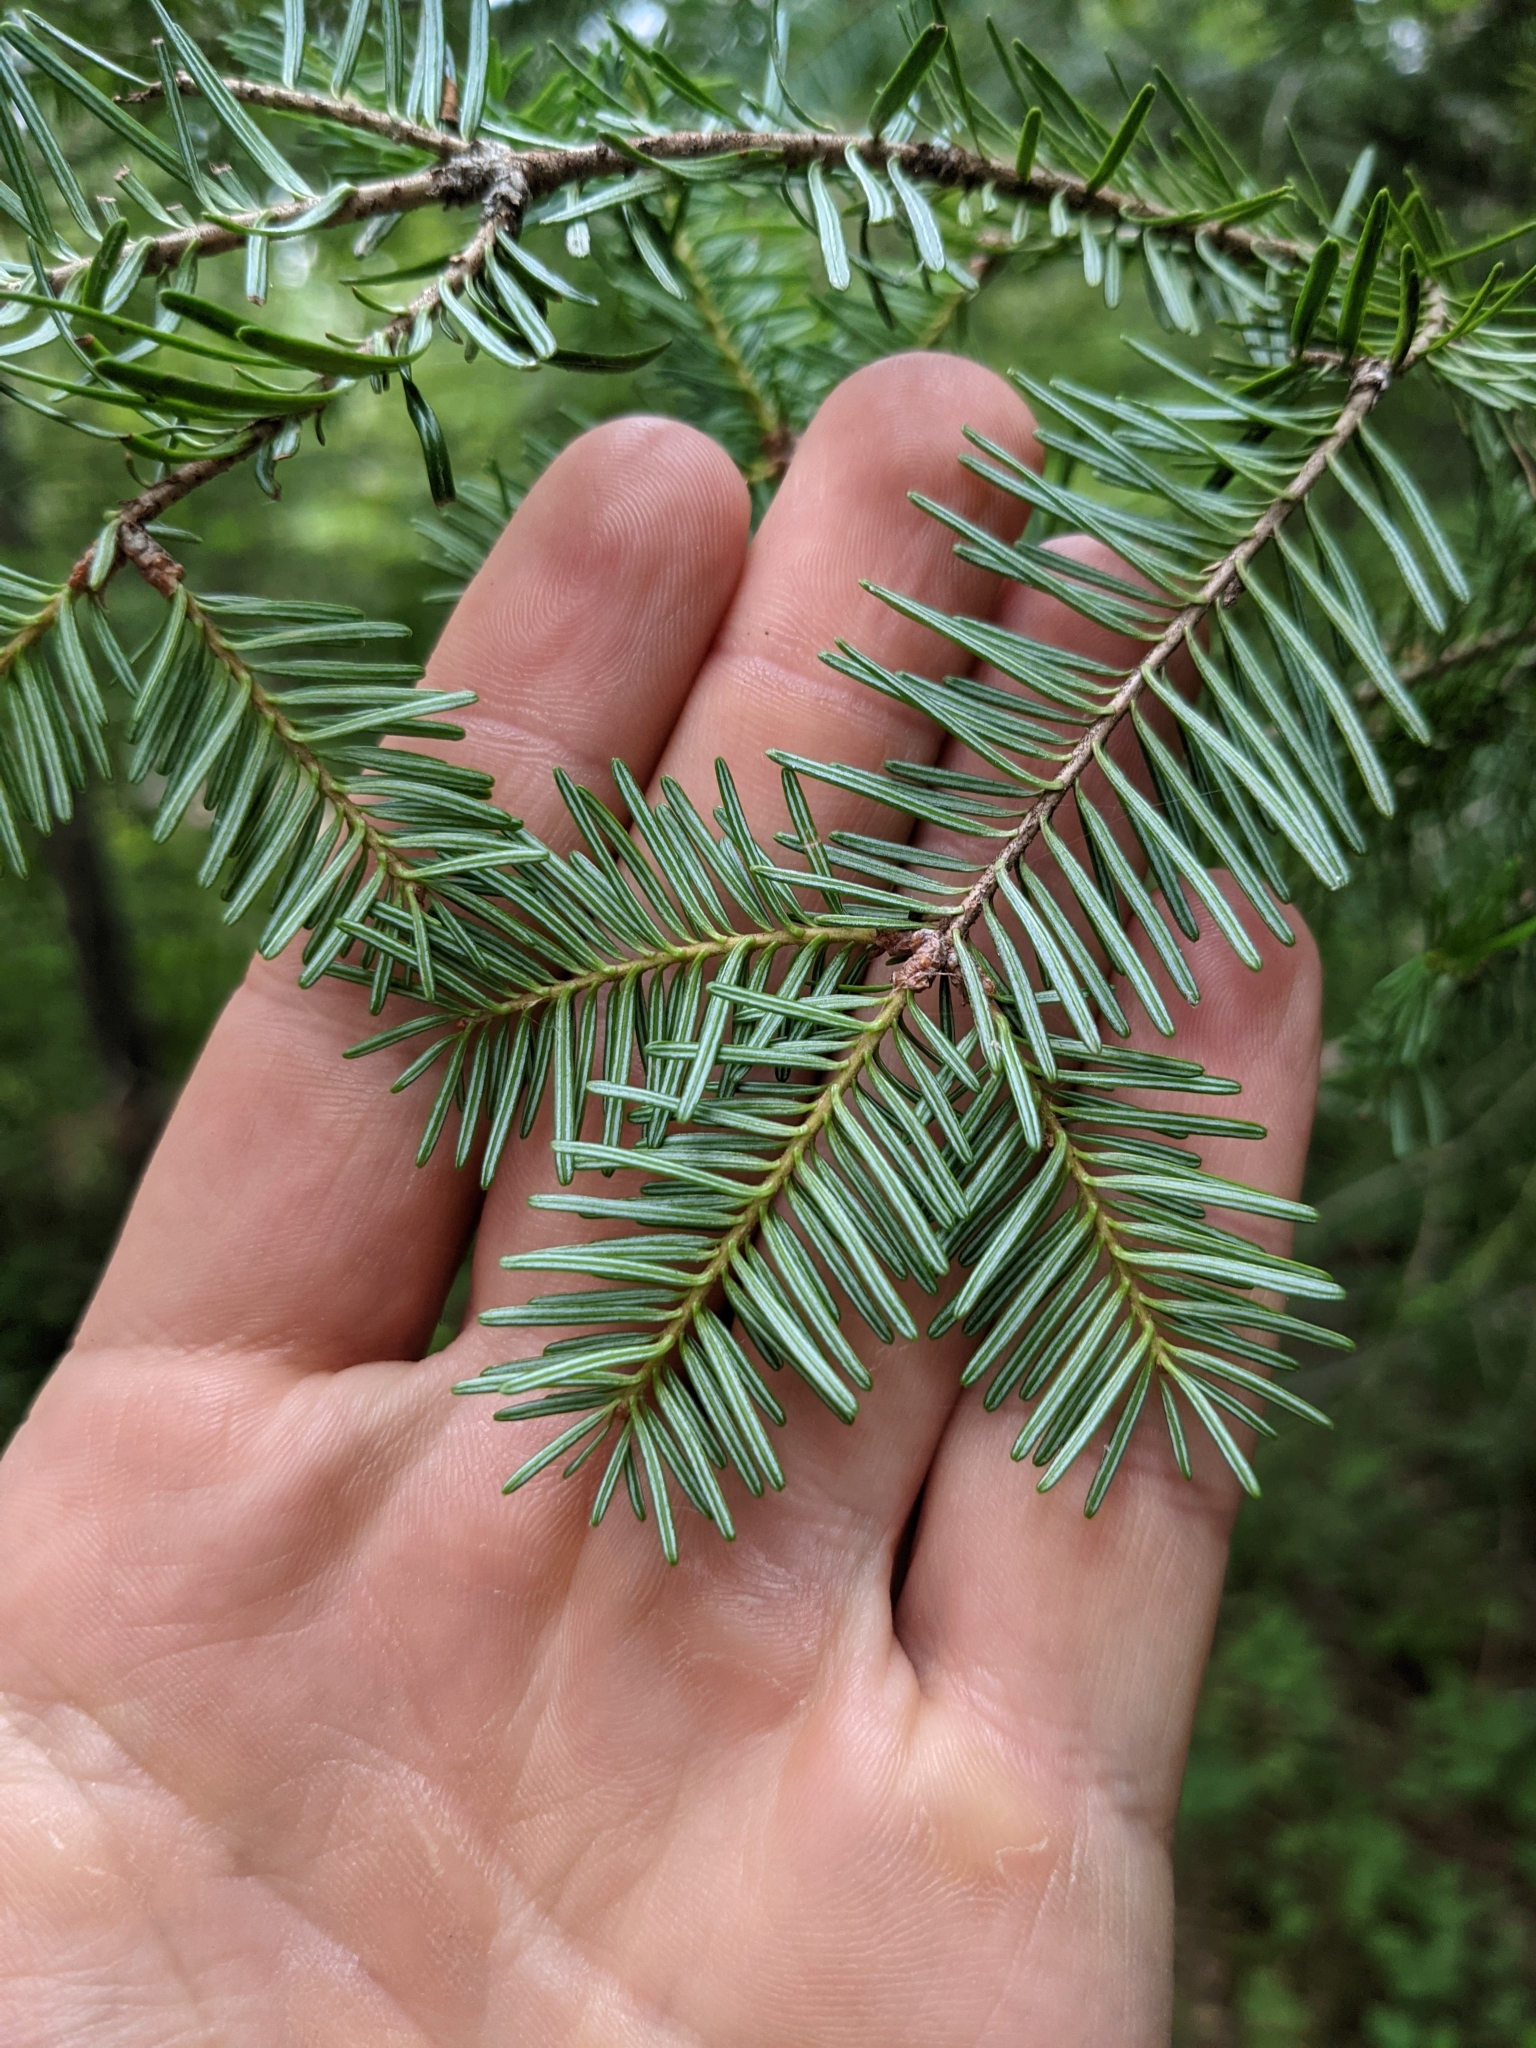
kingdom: Plantae
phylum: Tracheophyta
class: Pinopsida
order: Pinales
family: Pinaceae
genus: Abies
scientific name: Abies balsamea
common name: Balsam fir
